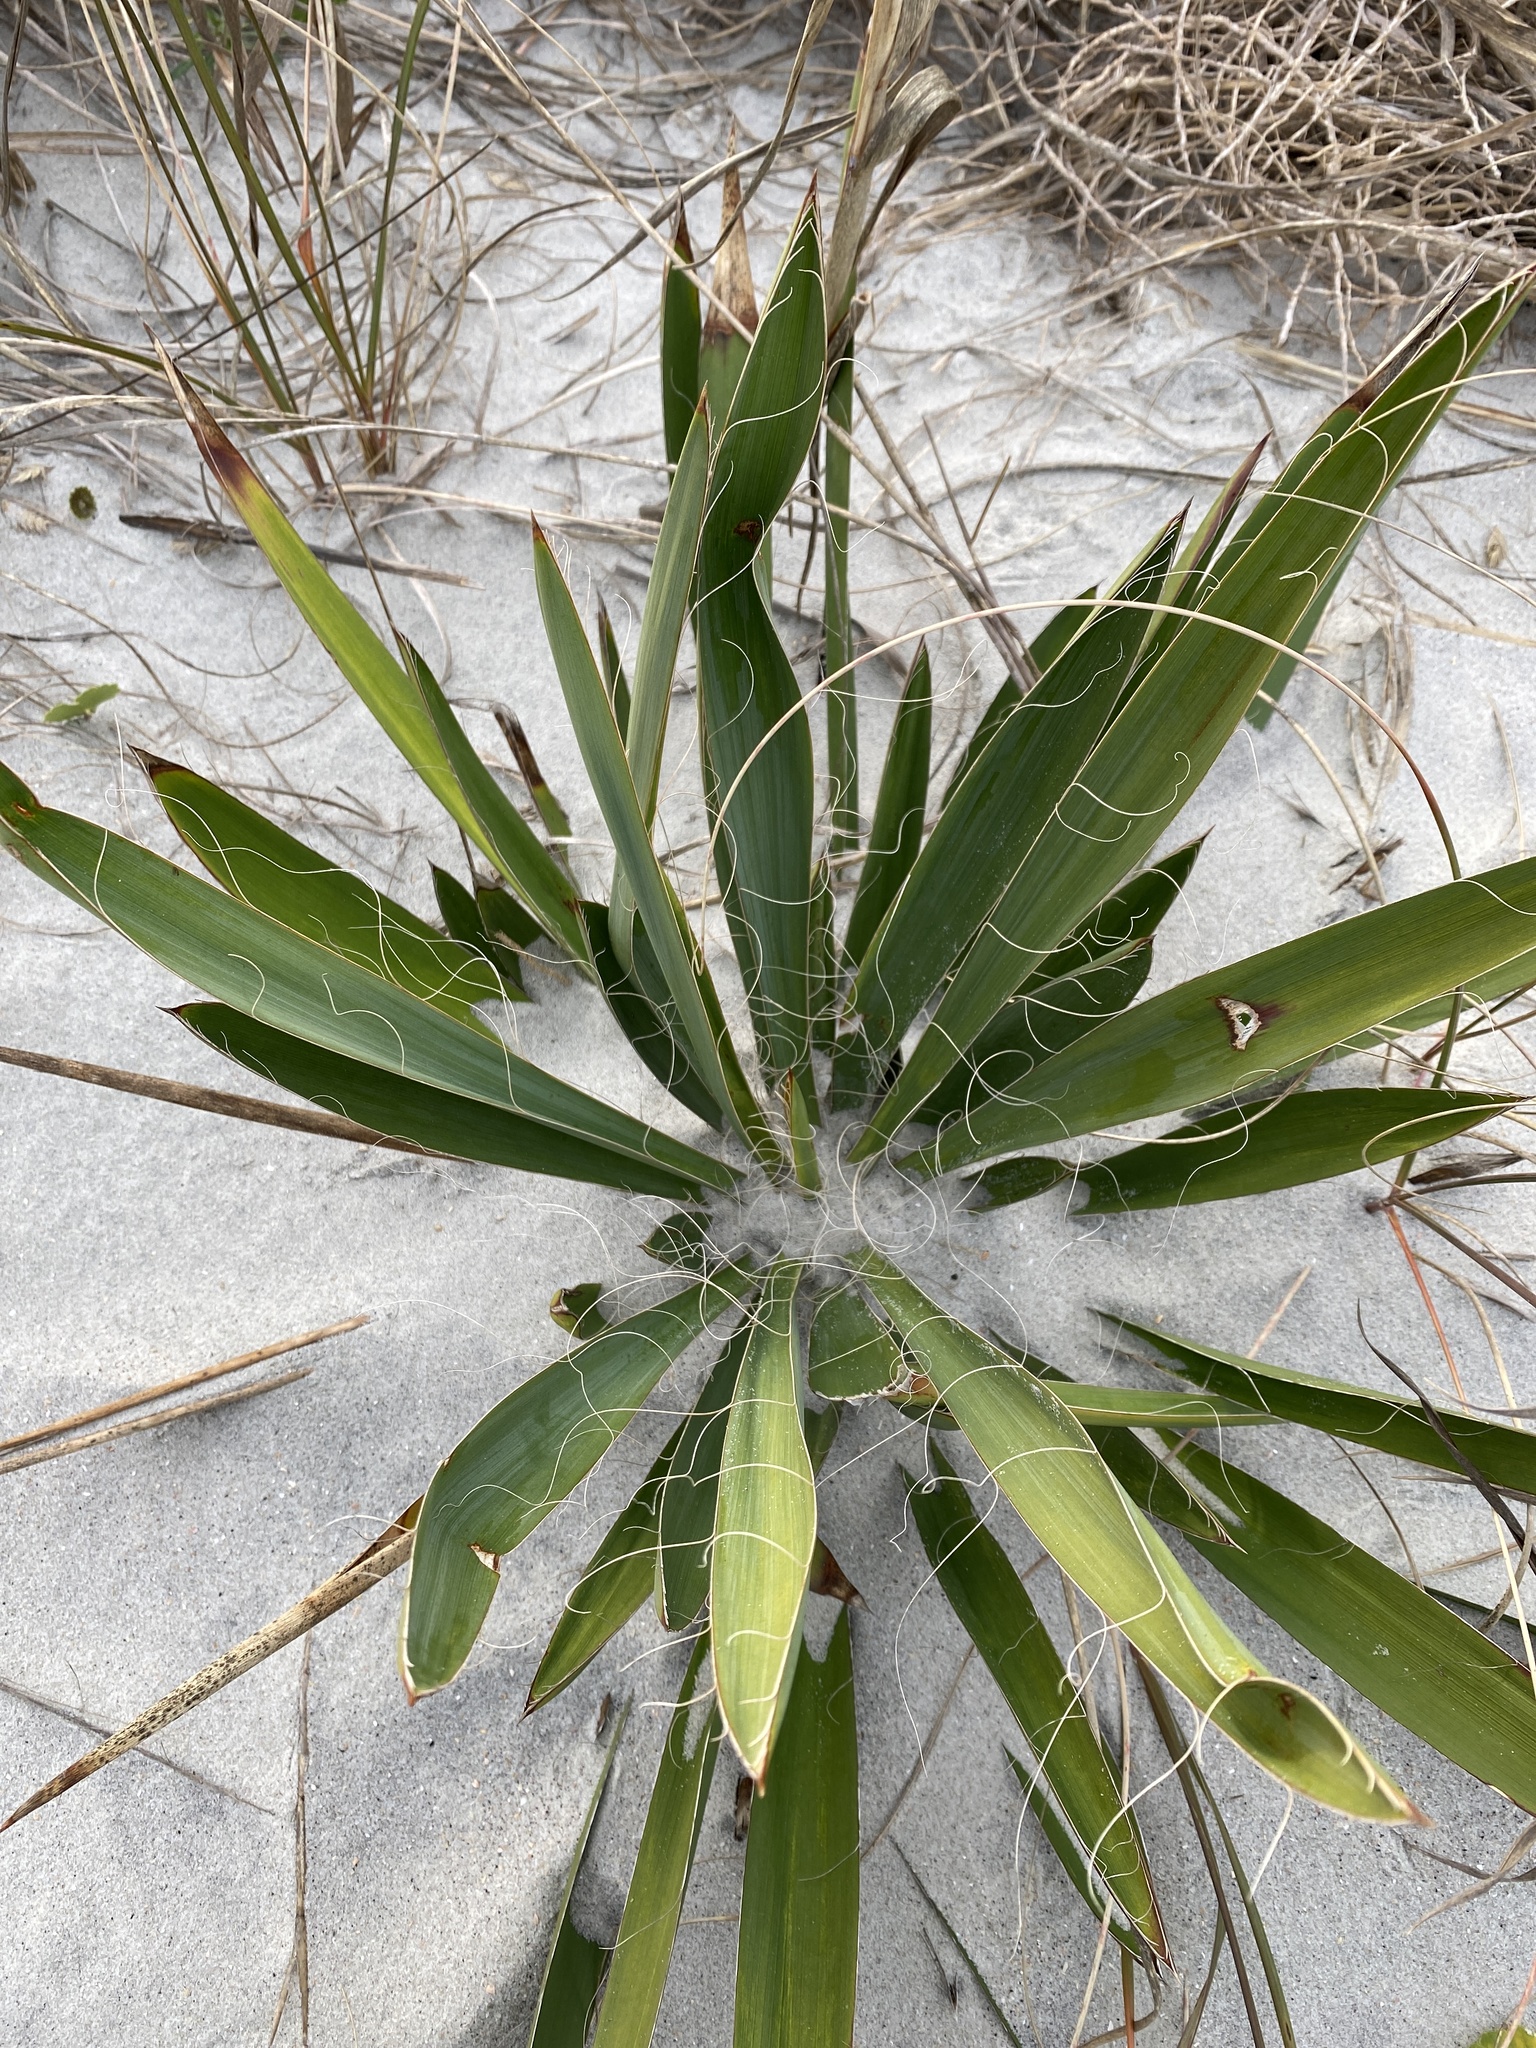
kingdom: Plantae
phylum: Tracheophyta
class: Liliopsida
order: Asparagales
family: Asparagaceae
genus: Yucca
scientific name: Yucca filamentosa
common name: Adam's-needle
